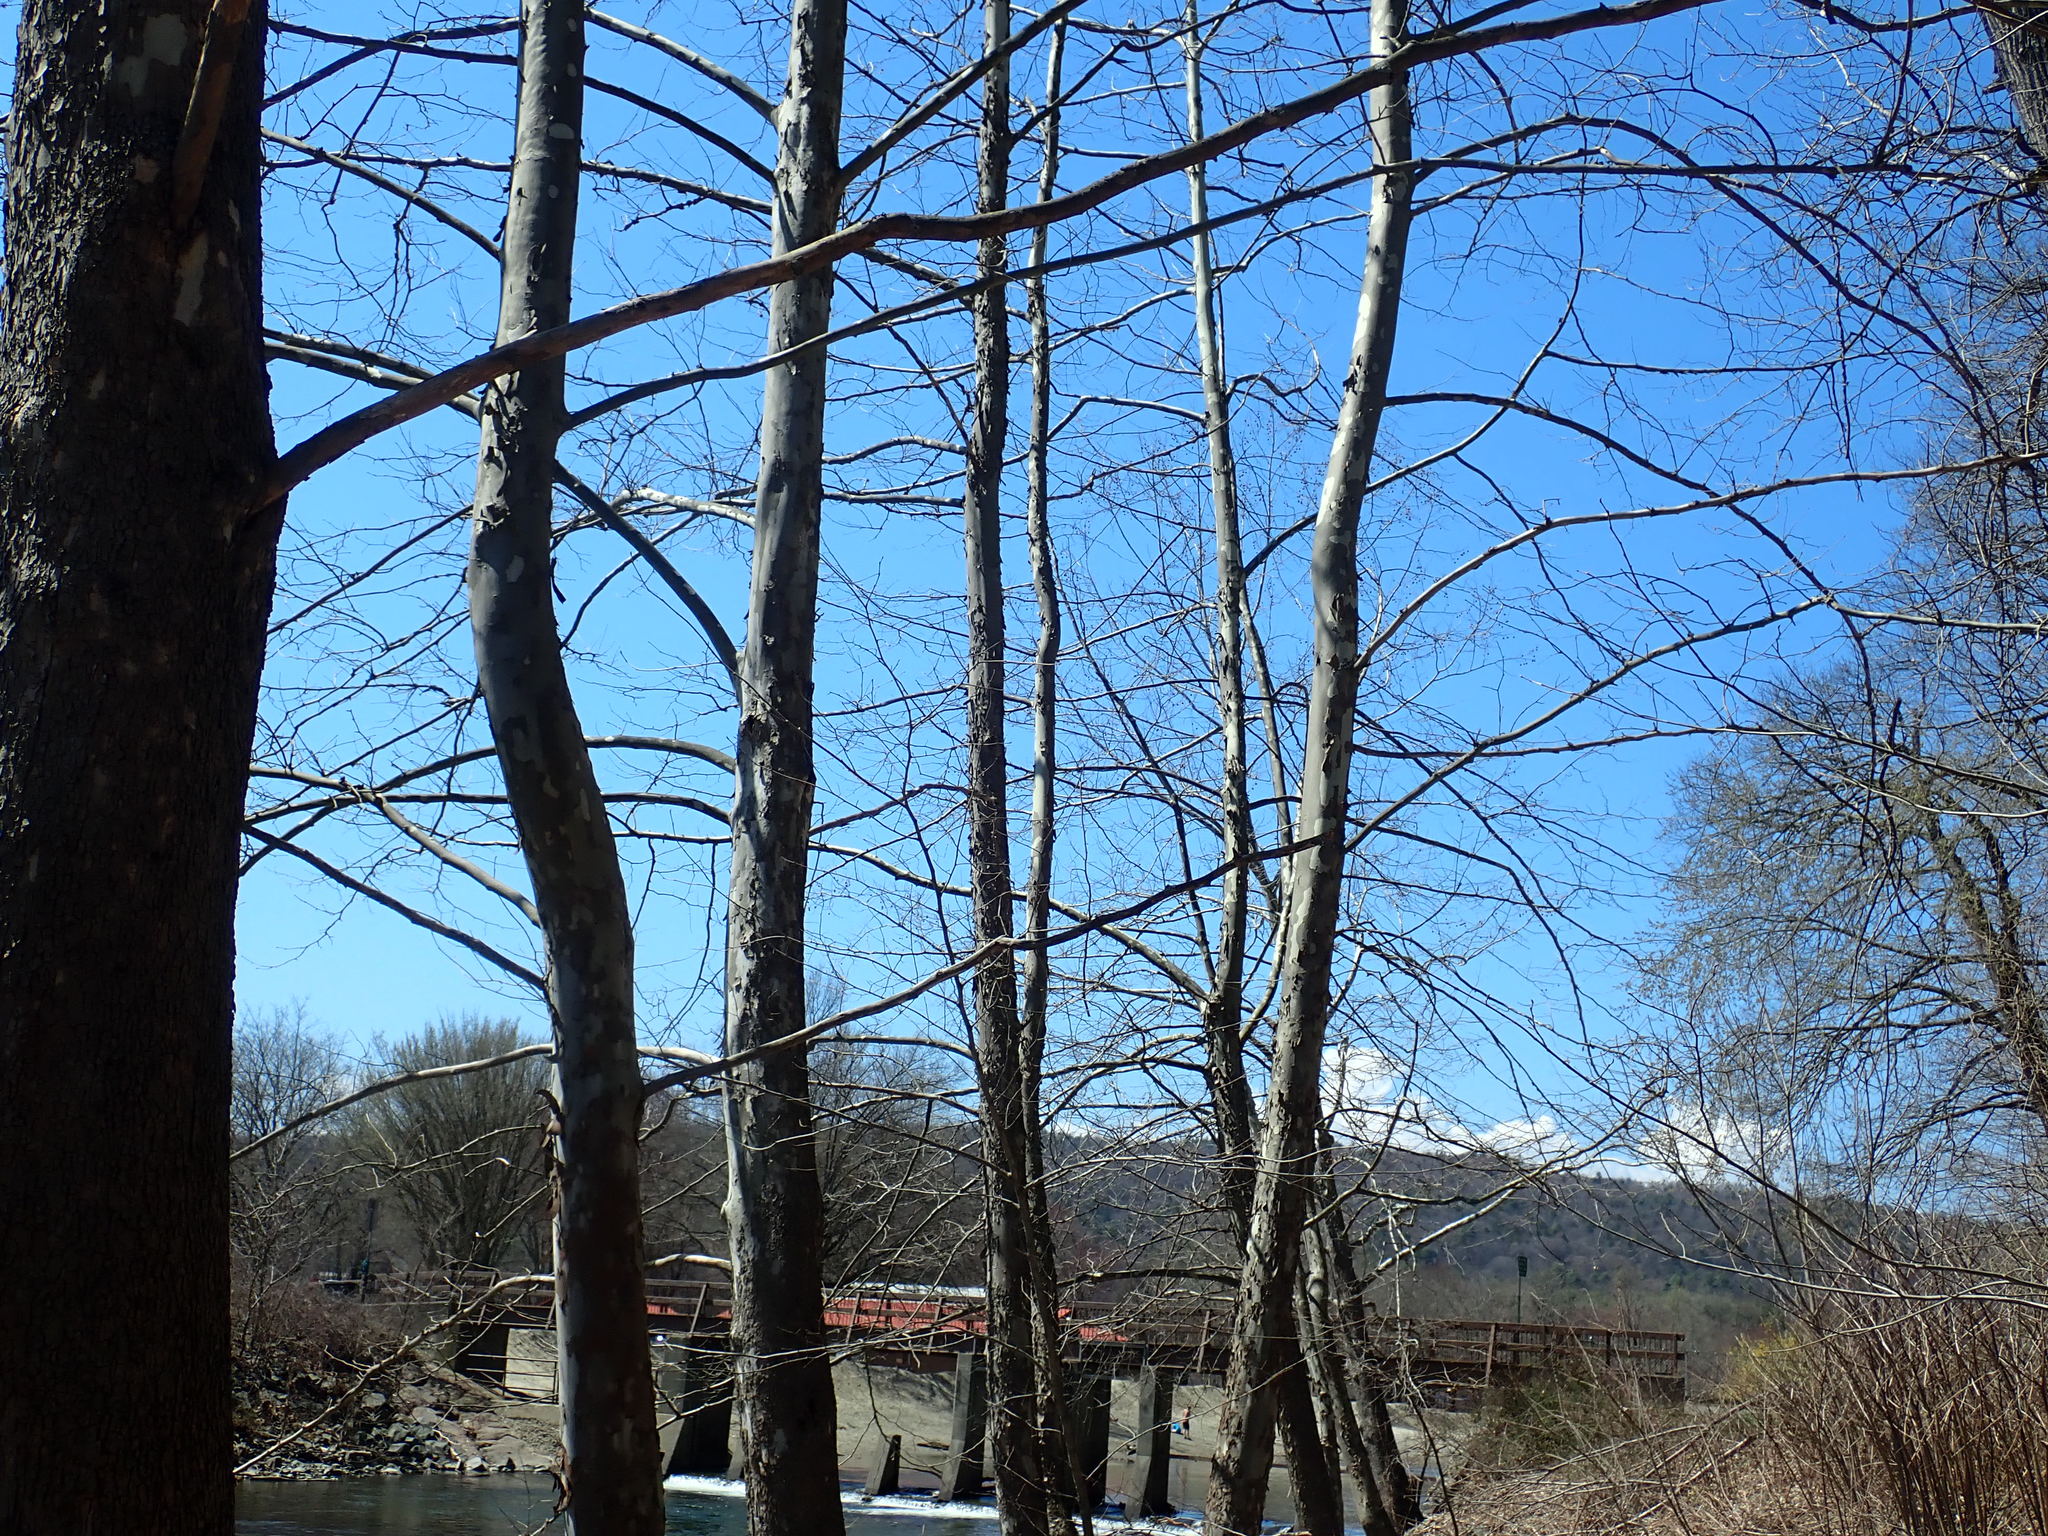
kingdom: Plantae
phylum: Tracheophyta
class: Magnoliopsida
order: Proteales
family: Platanaceae
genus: Platanus
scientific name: Platanus occidentalis
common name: American sycamore
